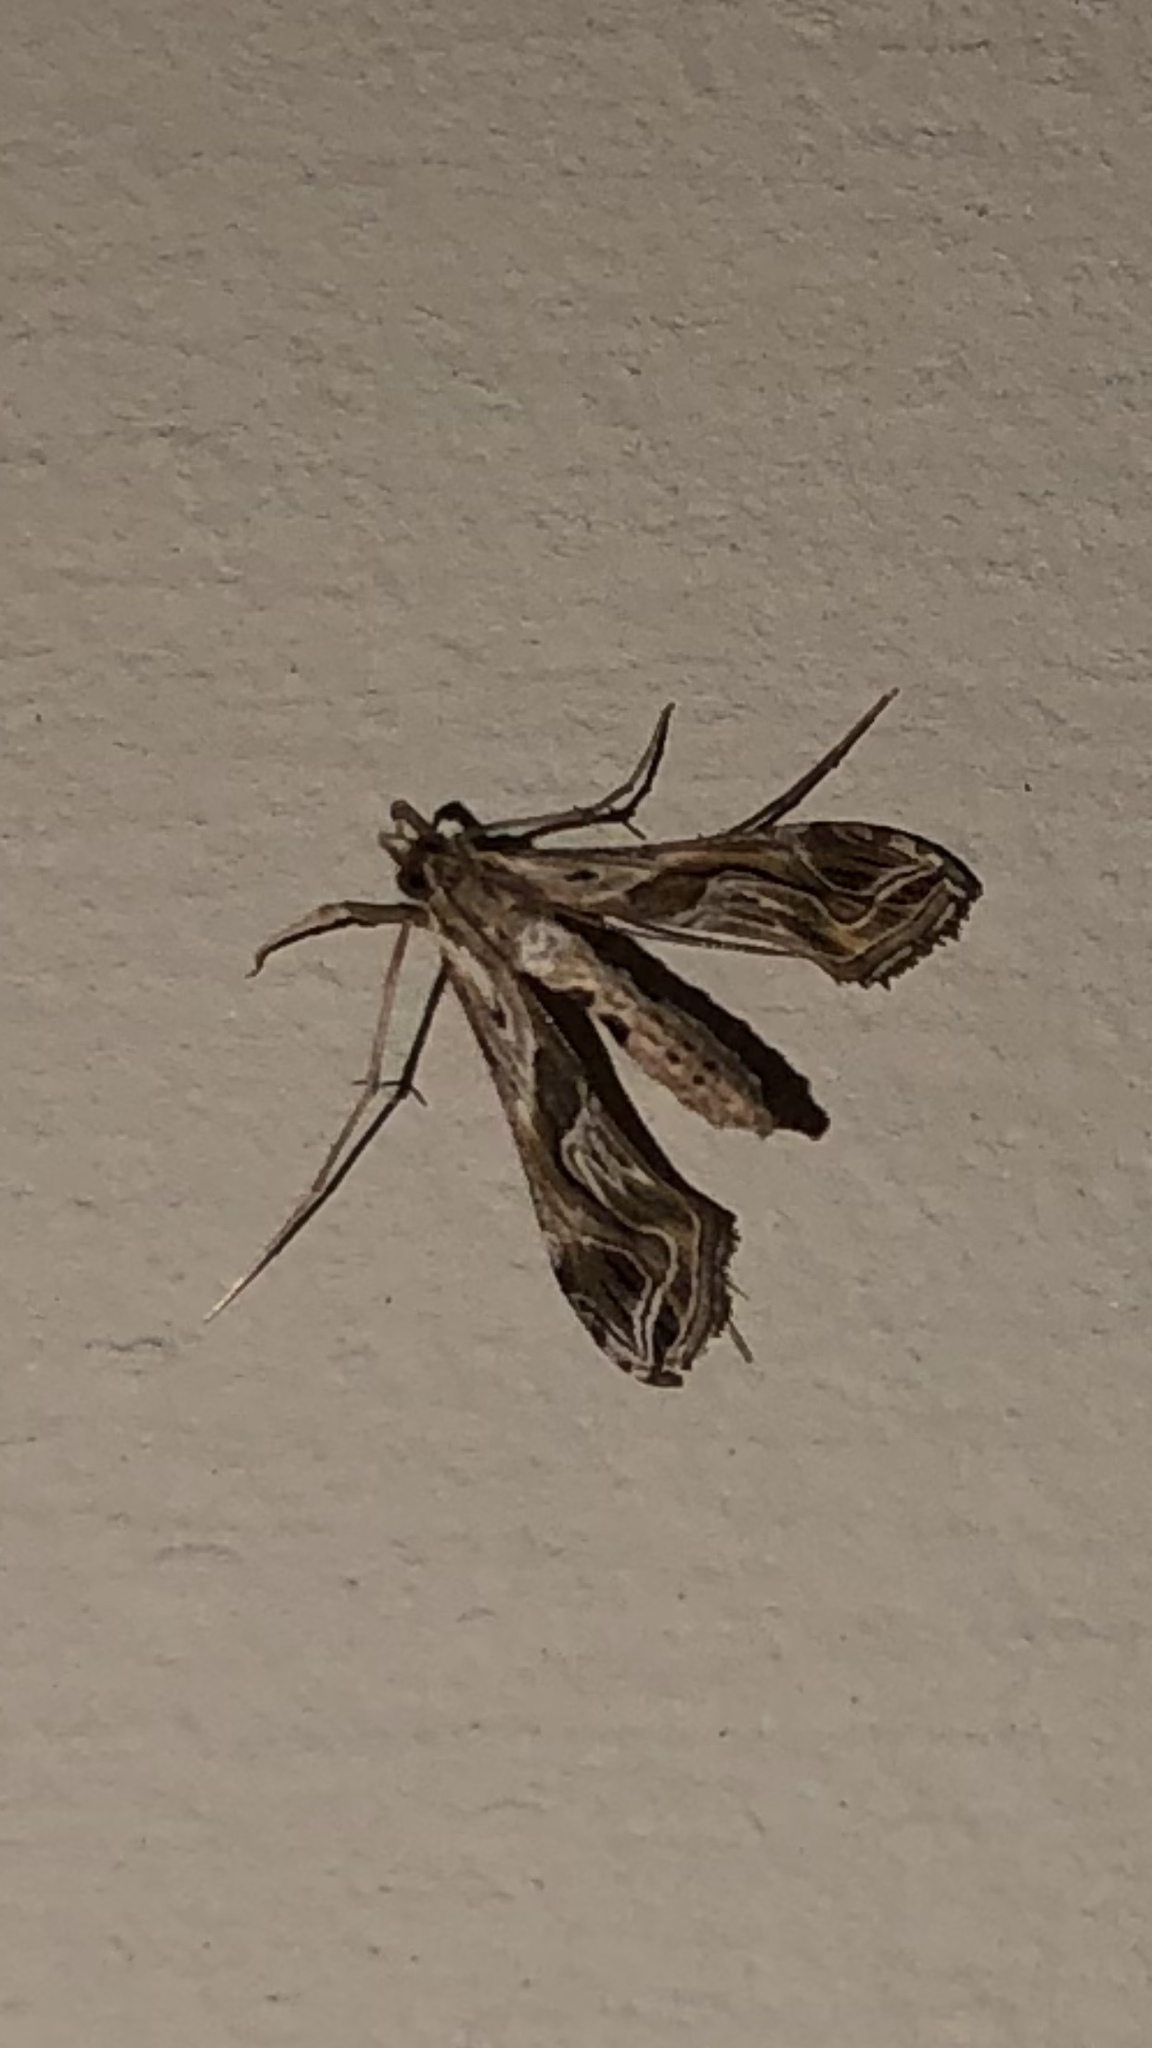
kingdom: Animalia
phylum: Arthropoda
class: Insecta
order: Lepidoptera
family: Crambidae
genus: Lineodes
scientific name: Lineodes integra
